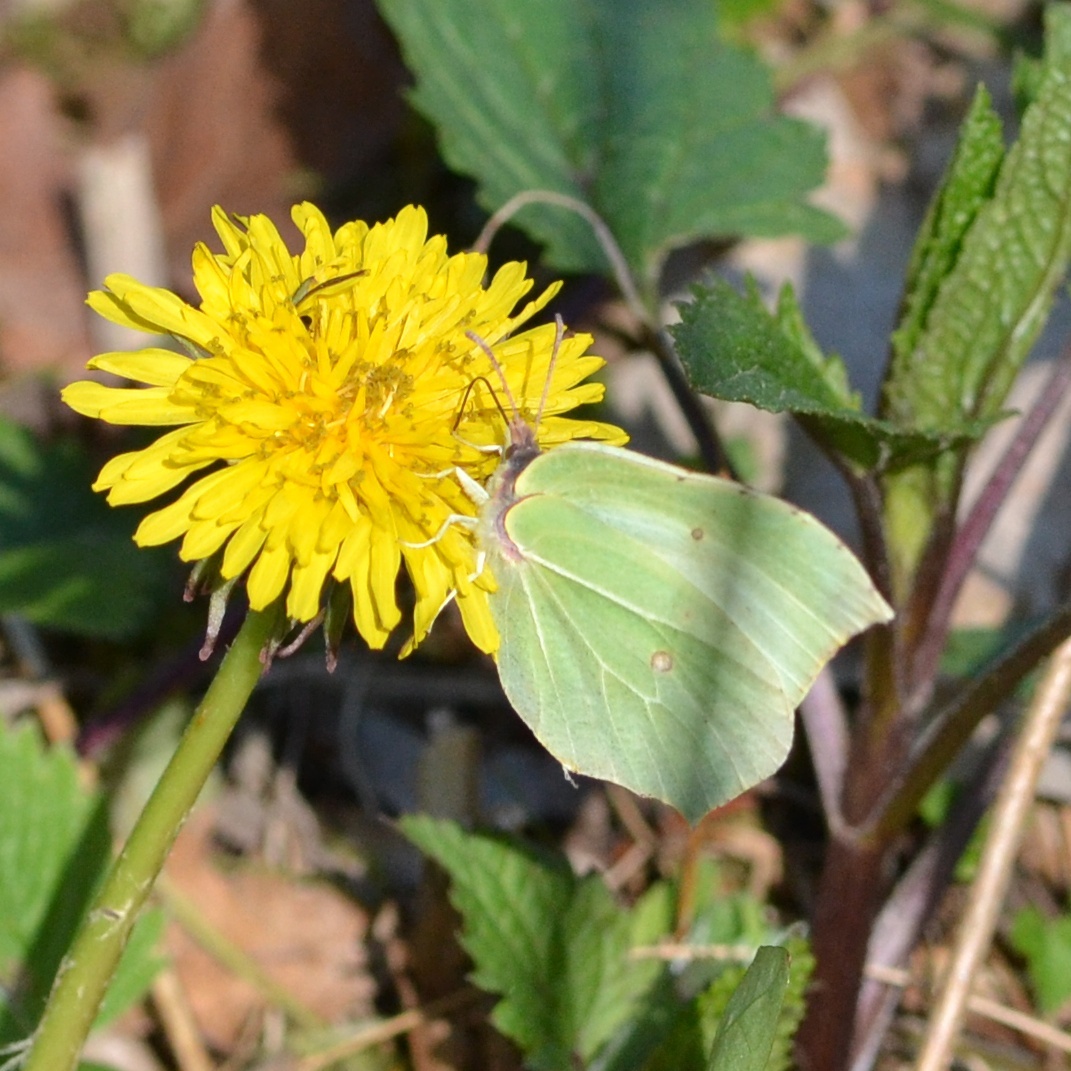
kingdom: Animalia
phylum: Arthropoda
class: Insecta
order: Lepidoptera
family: Pieridae
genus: Gonepteryx
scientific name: Gonepteryx rhamni
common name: Brimstone
